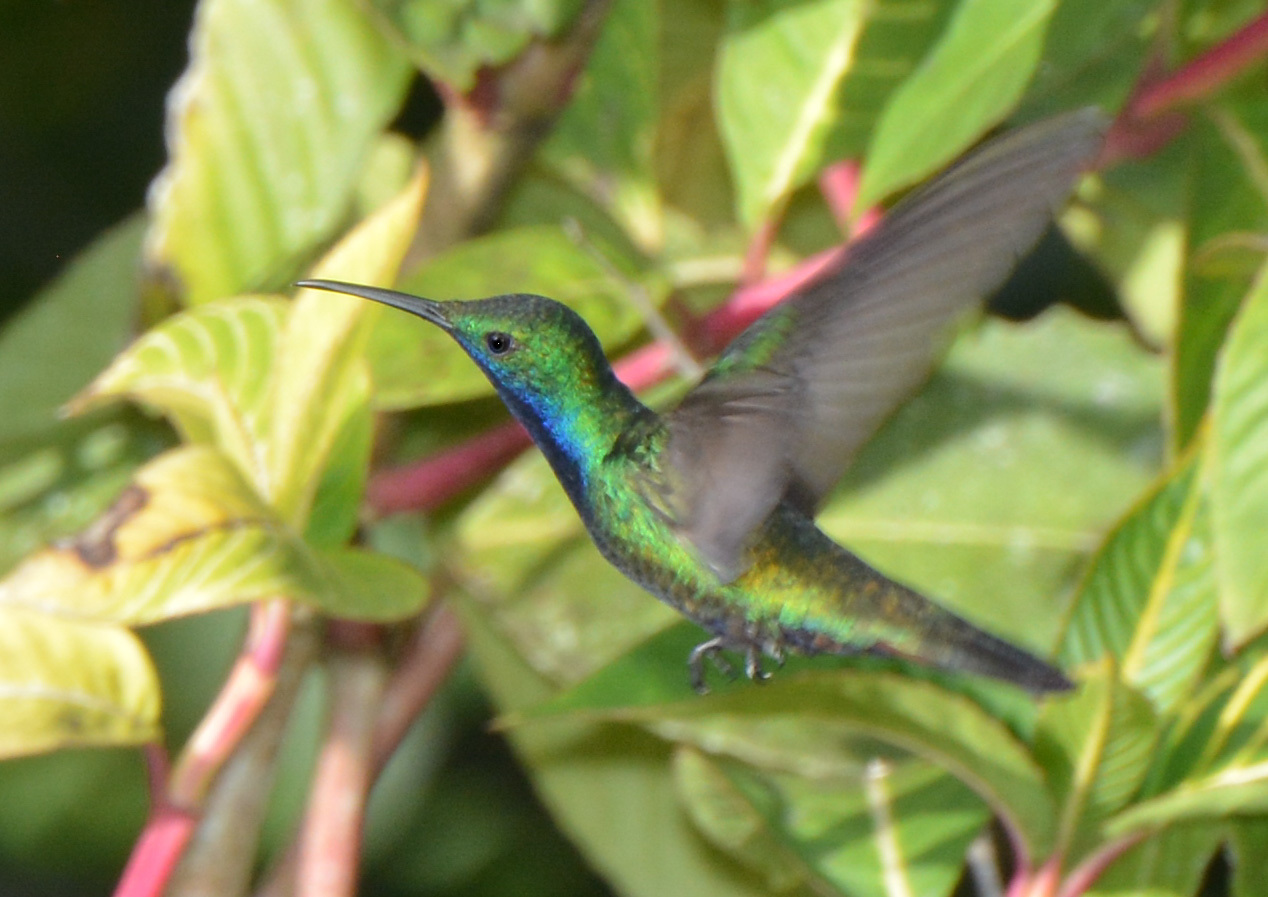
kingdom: Animalia
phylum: Chordata
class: Aves
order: Apodiformes
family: Trochilidae
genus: Anthracothorax
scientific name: Anthracothorax nigricollis
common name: Black-throated mango
